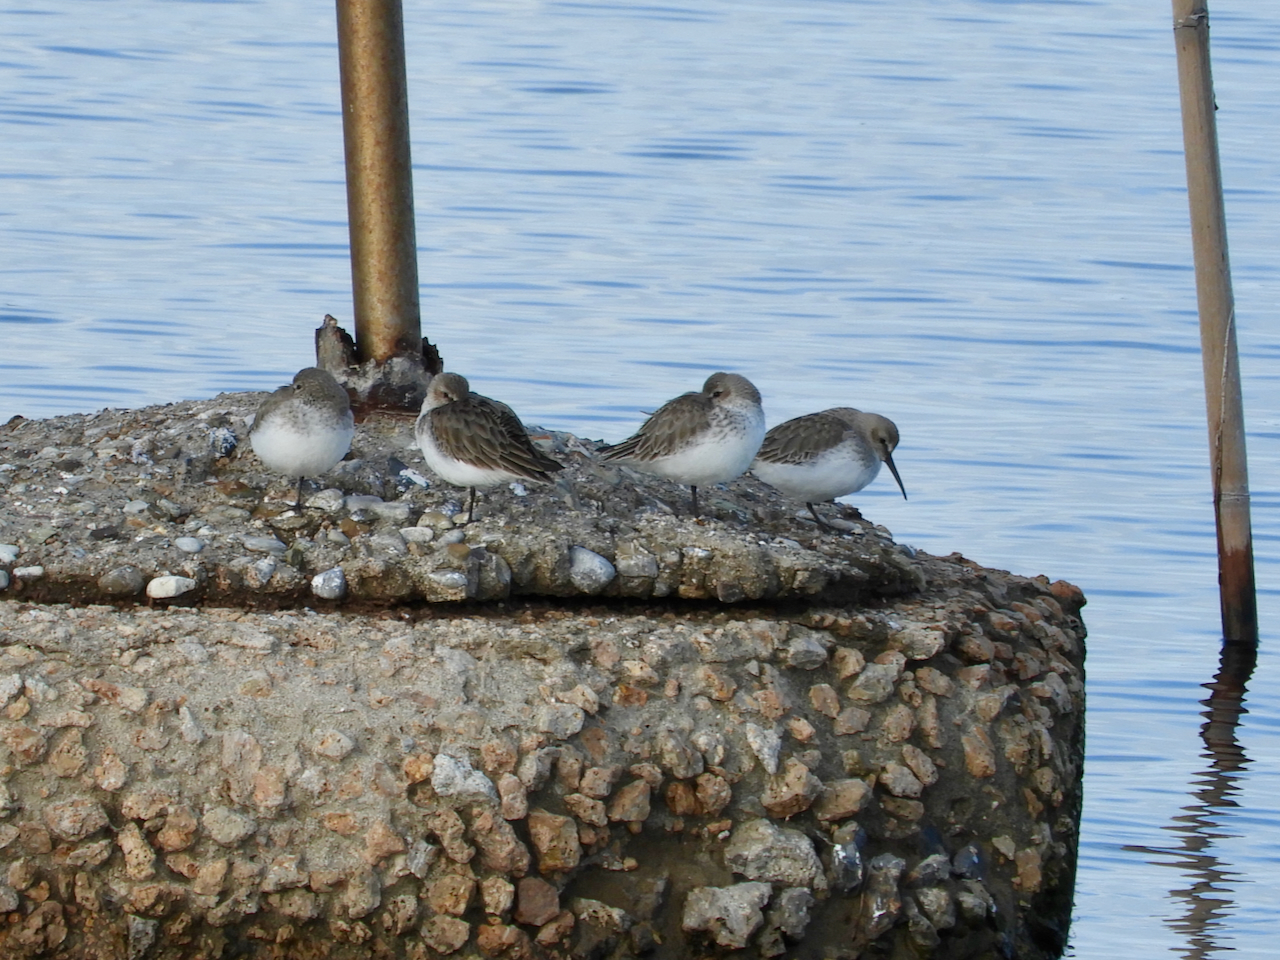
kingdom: Animalia
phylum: Chordata
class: Aves
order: Charadriiformes
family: Scolopacidae
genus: Calidris
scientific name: Calidris alpina
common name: Dunlin
